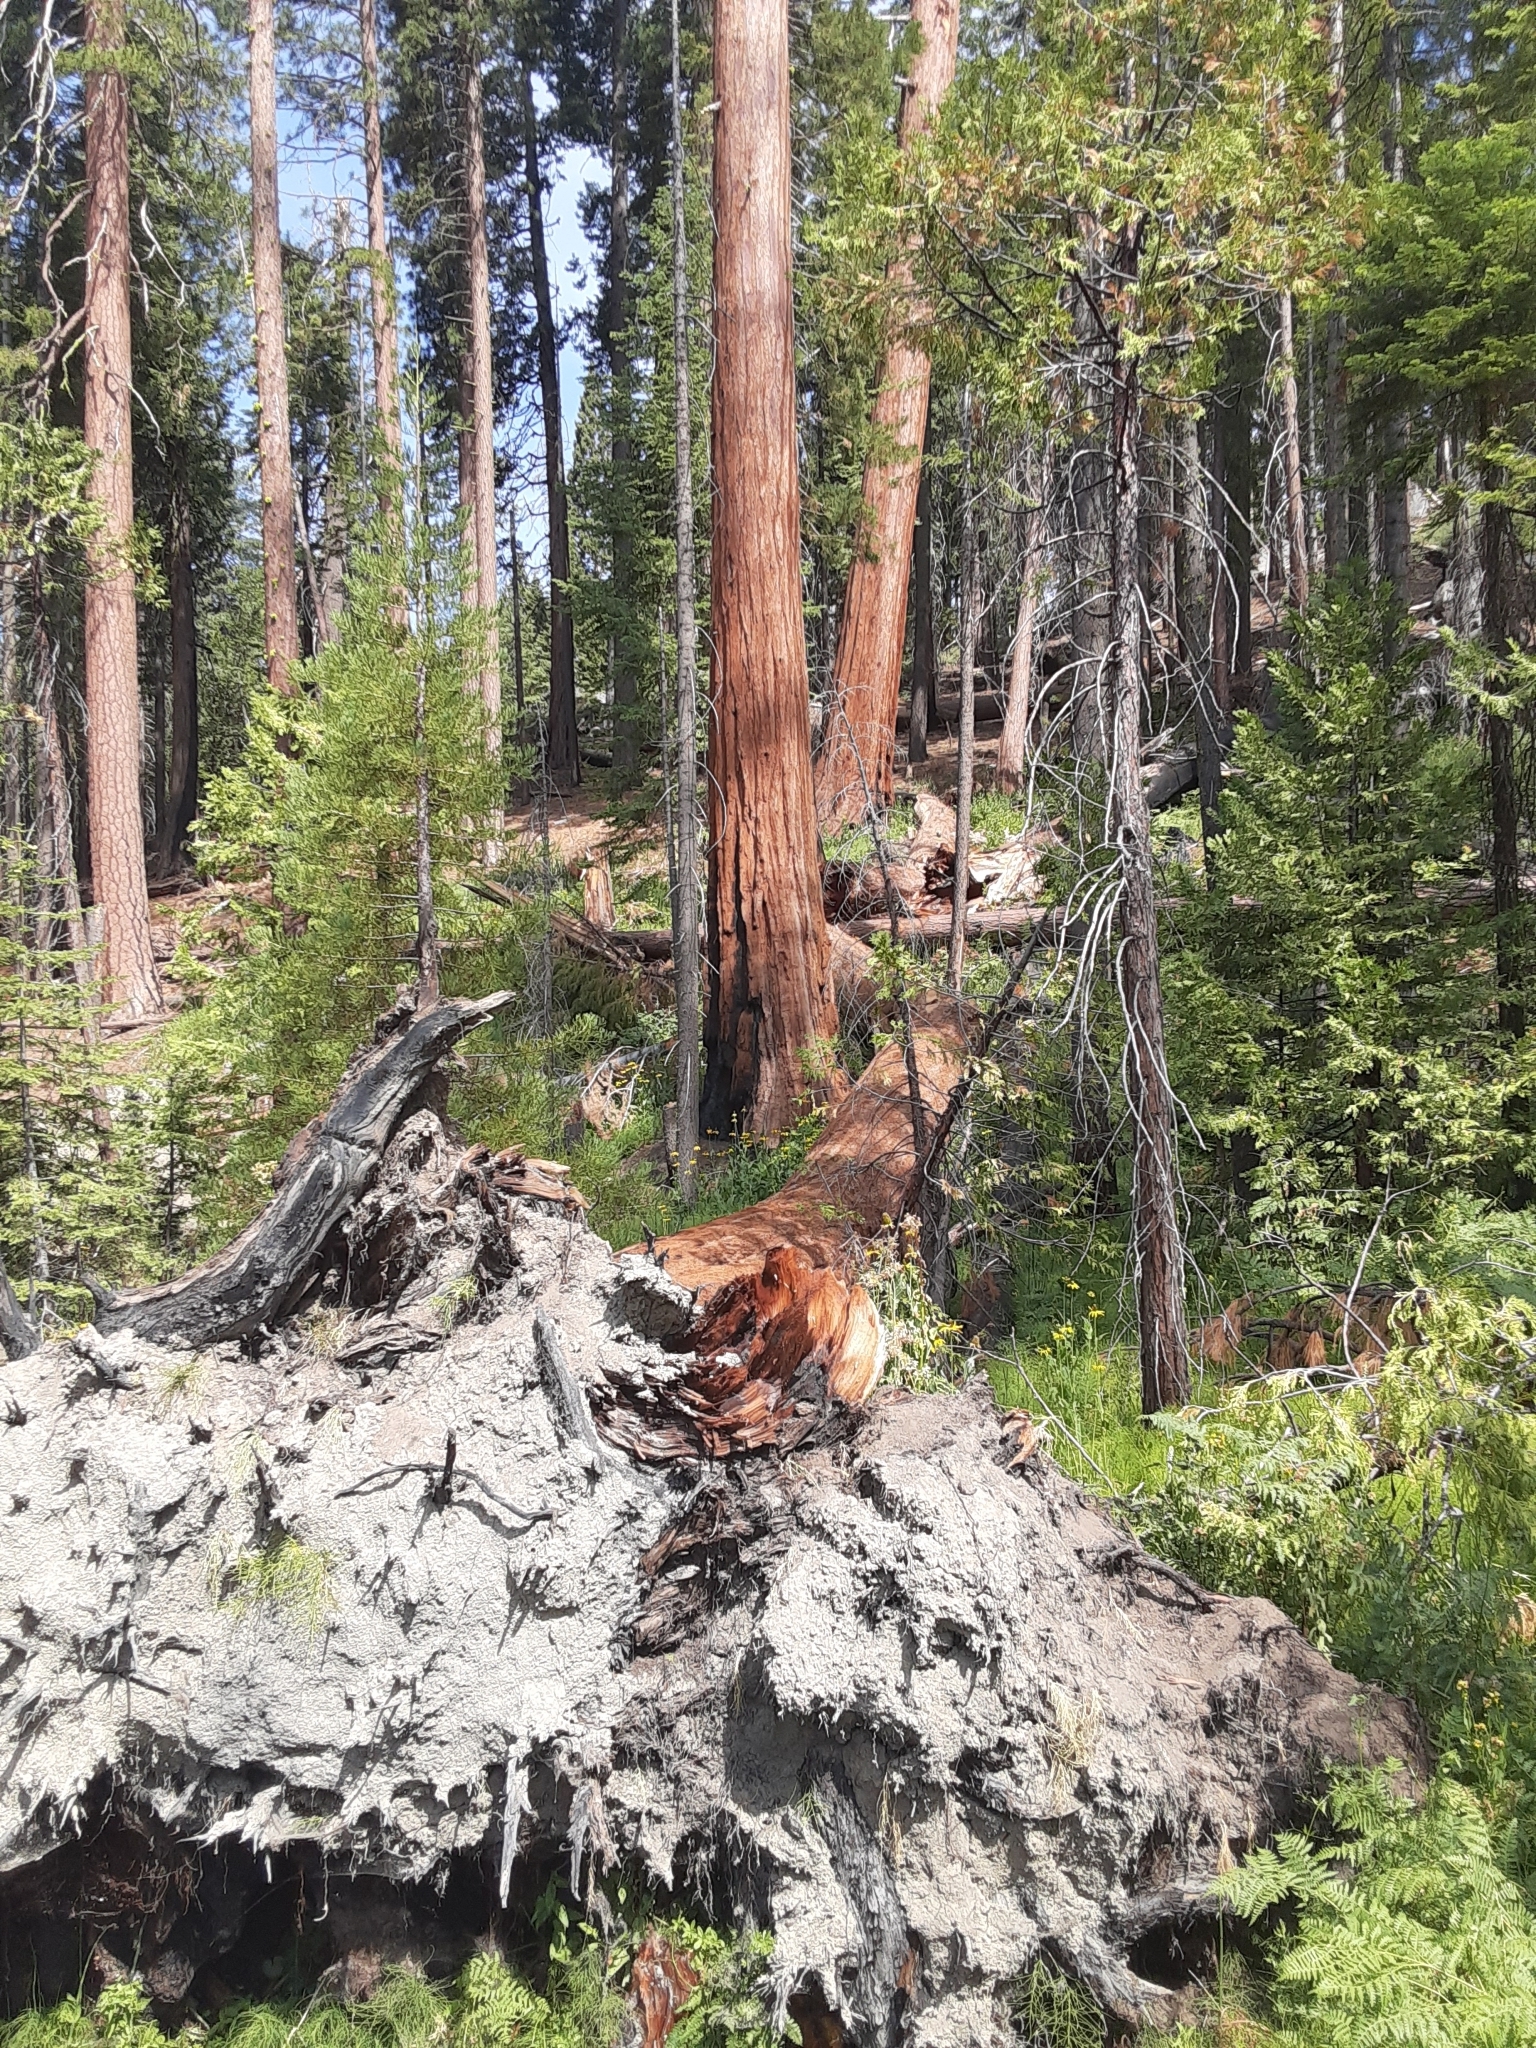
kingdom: Plantae
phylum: Tracheophyta
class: Pinopsida
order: Pinales
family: Cupressaceae
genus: Sequoiadendron
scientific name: Sequoiadendron giganteum
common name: Wellingtonia
